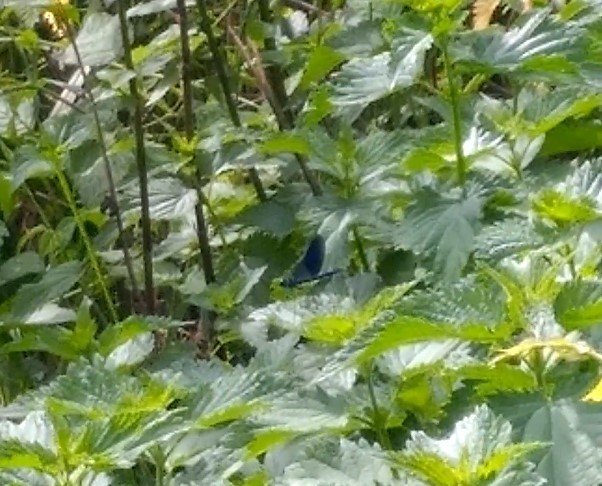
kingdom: Animalia
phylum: Arthropoda
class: Insecta
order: Odonata
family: Calopterygidae
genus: Calopteryx
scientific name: Calopteryx splendens
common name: Banded demoiselle
